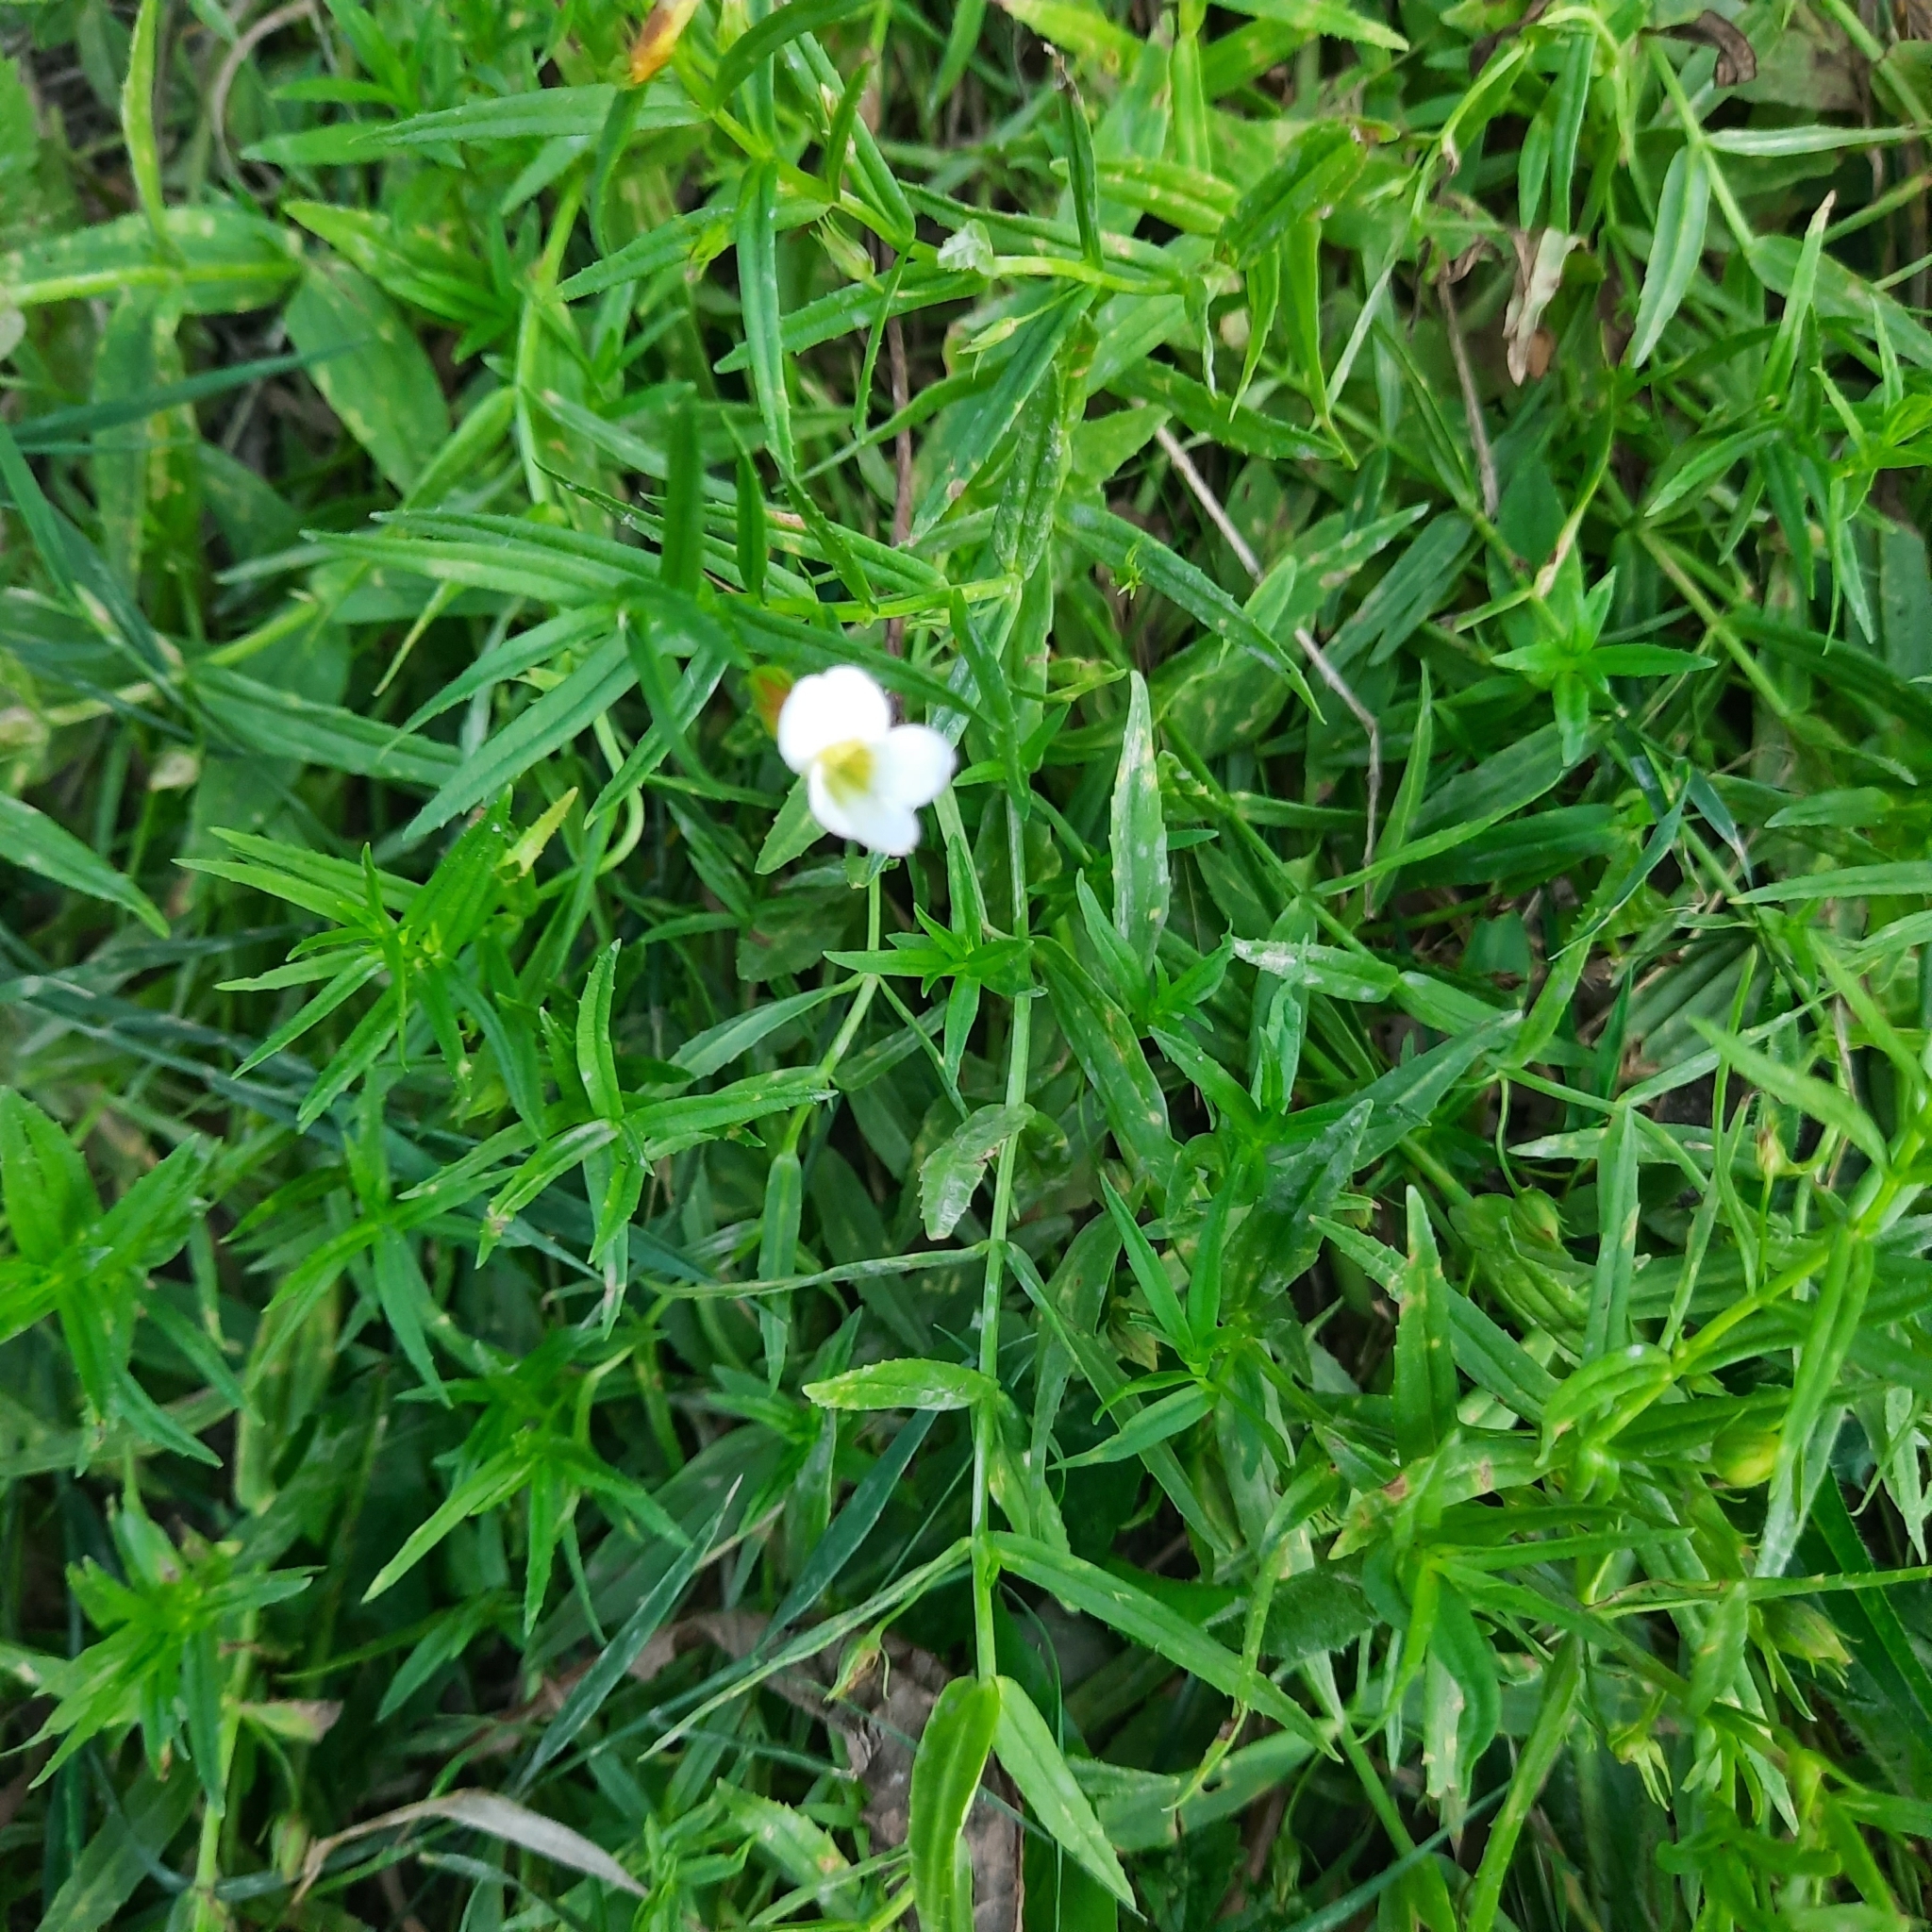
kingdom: Plantae
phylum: Tracheophyta
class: Magnoliopsida
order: Lamiales
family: Plantaginaceae
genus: Gratiola
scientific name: Gratiola officinalis
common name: Gratiola
